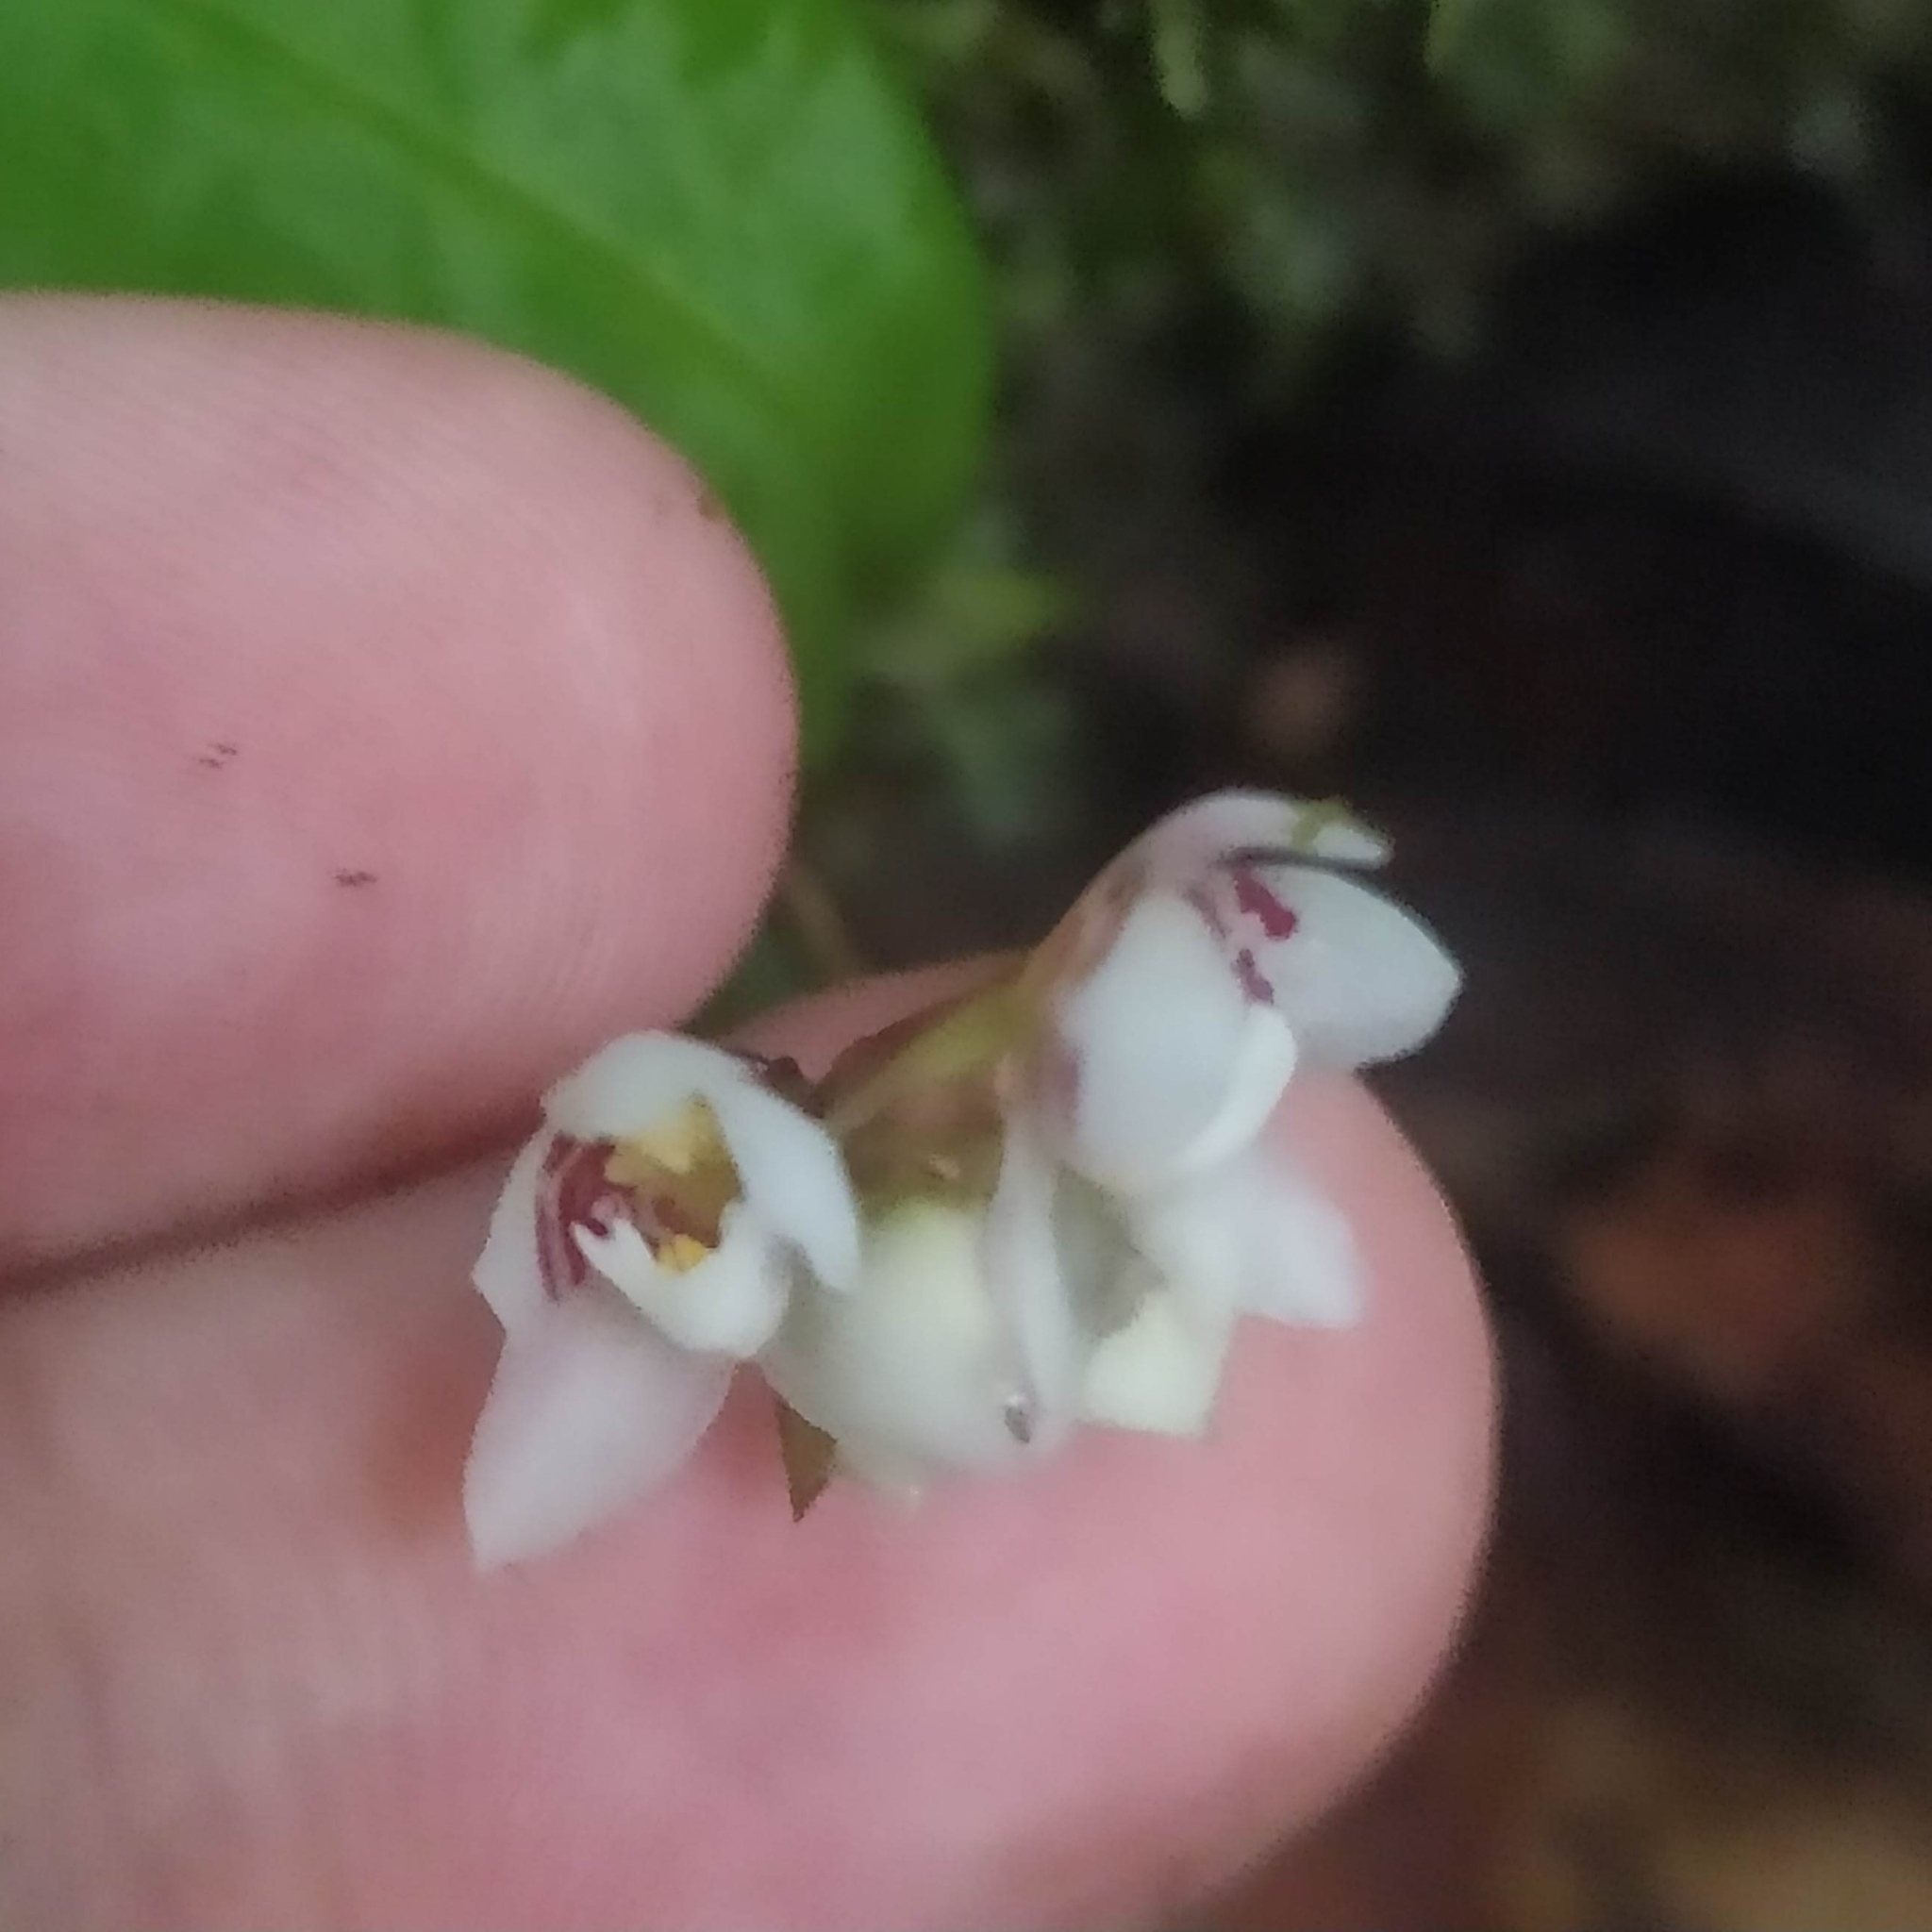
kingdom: Plantae
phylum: Tracheophyta
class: Liliopsida
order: Asparagales
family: Orchidaceae
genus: Cheiradenia
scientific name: Cheiradenia cuspidata
